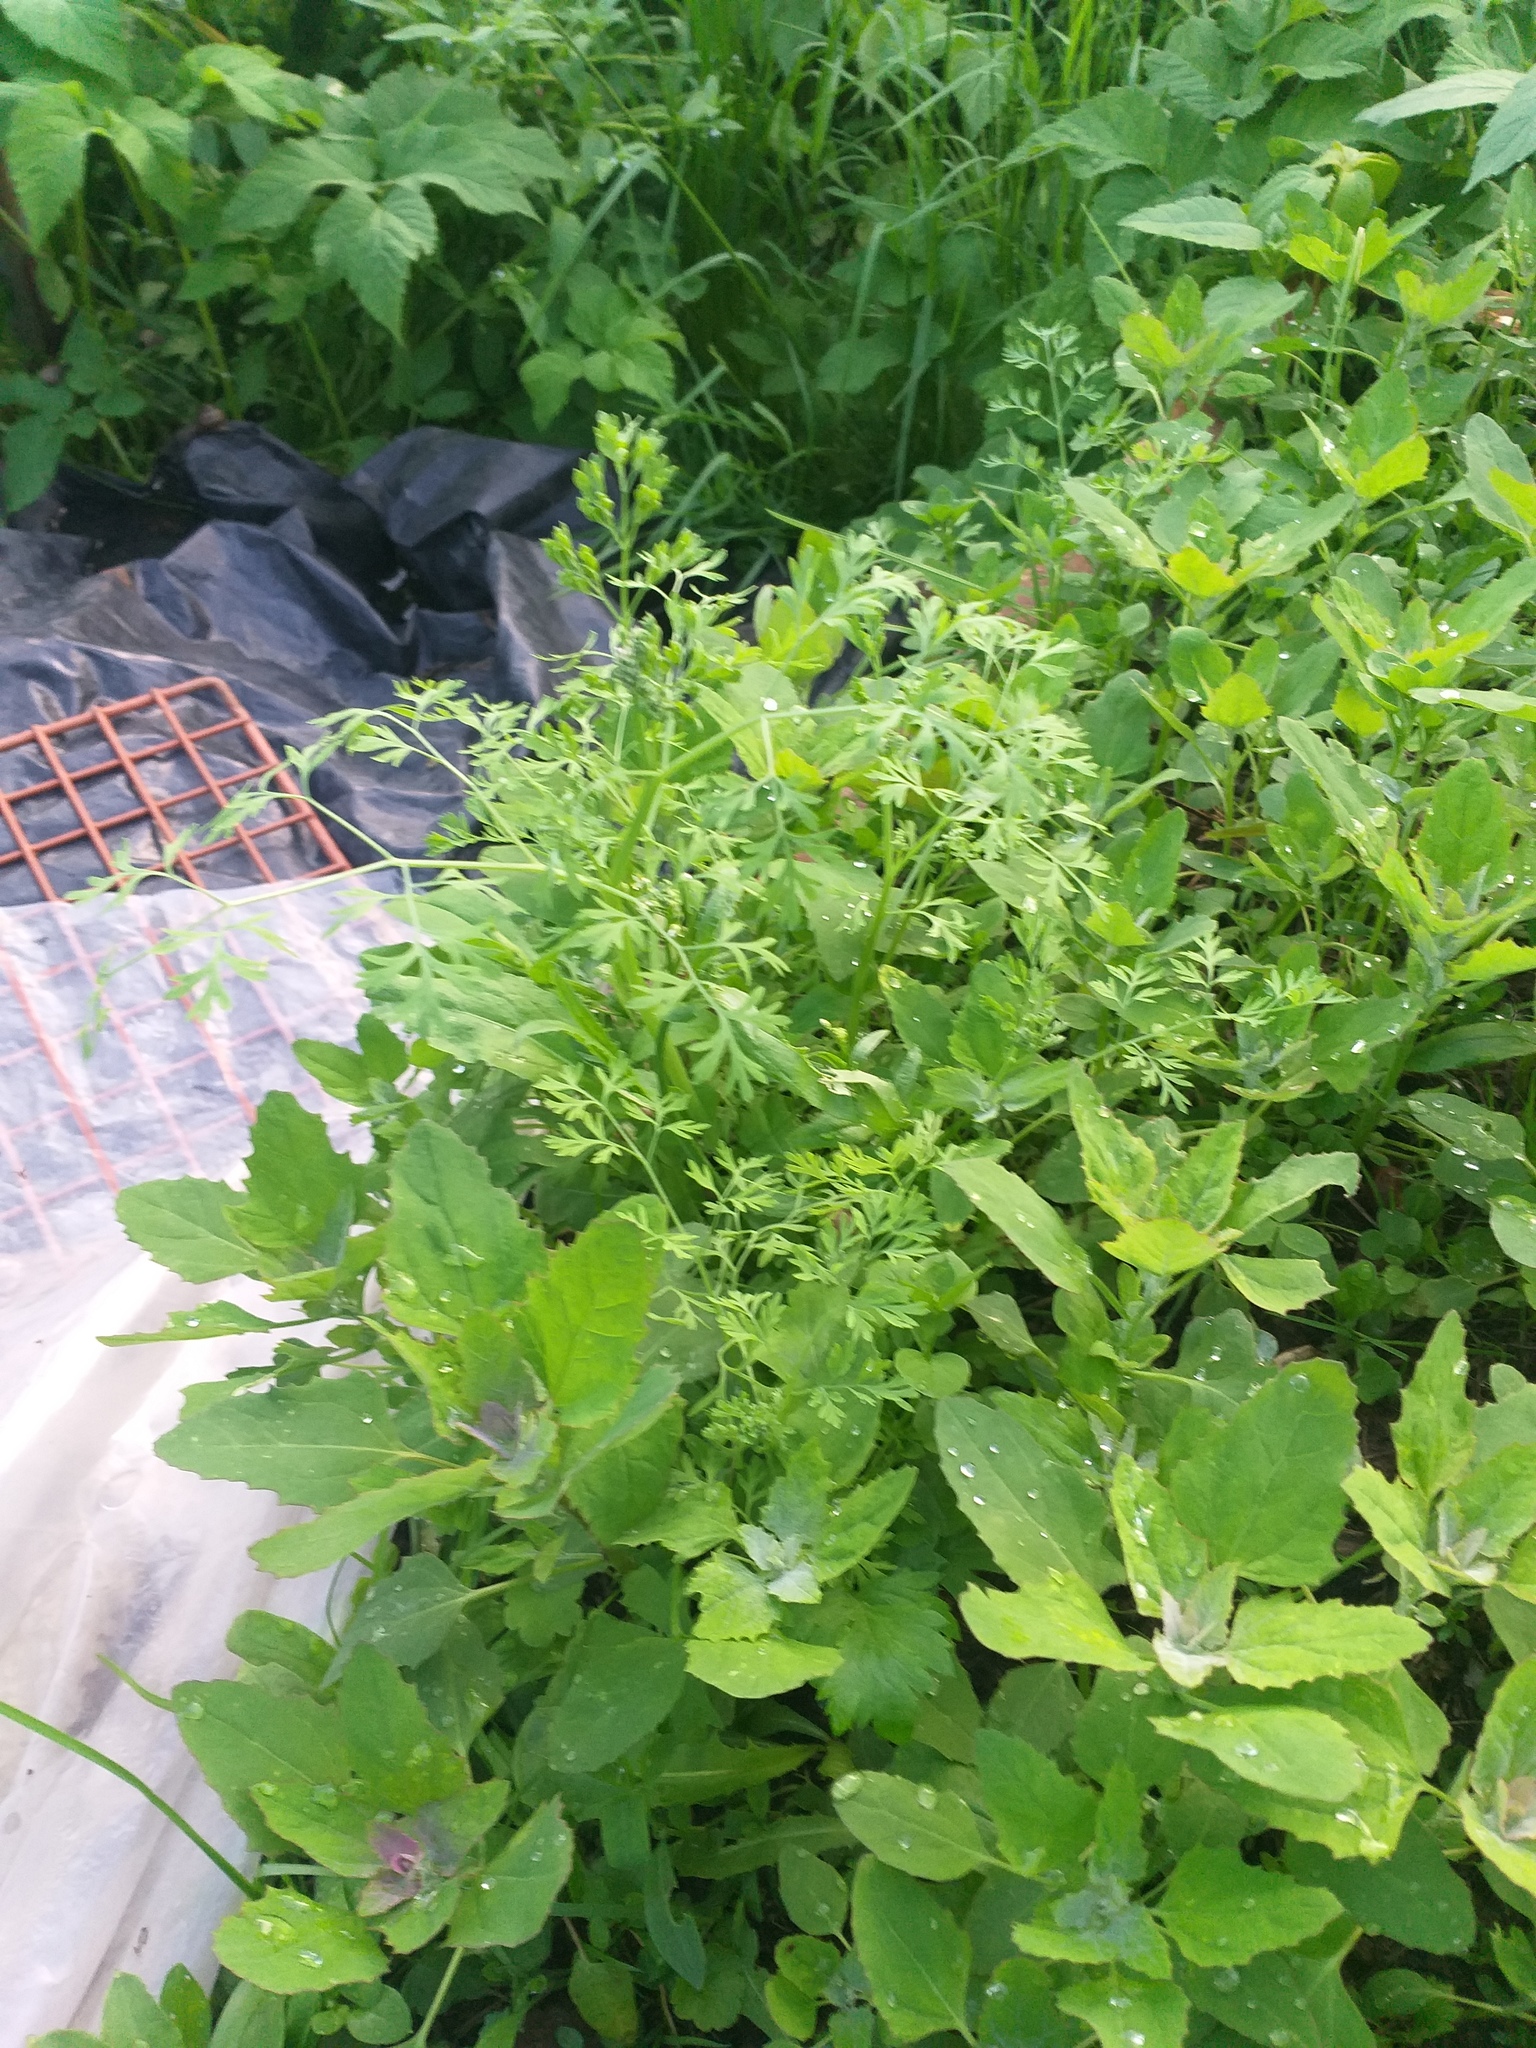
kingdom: Plantae
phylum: Tracheophyta
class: Magnoliopsida
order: Ranunculales
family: Papaveraceae
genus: Fumaria
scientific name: Fumaria officinalis
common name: Common fumitory
